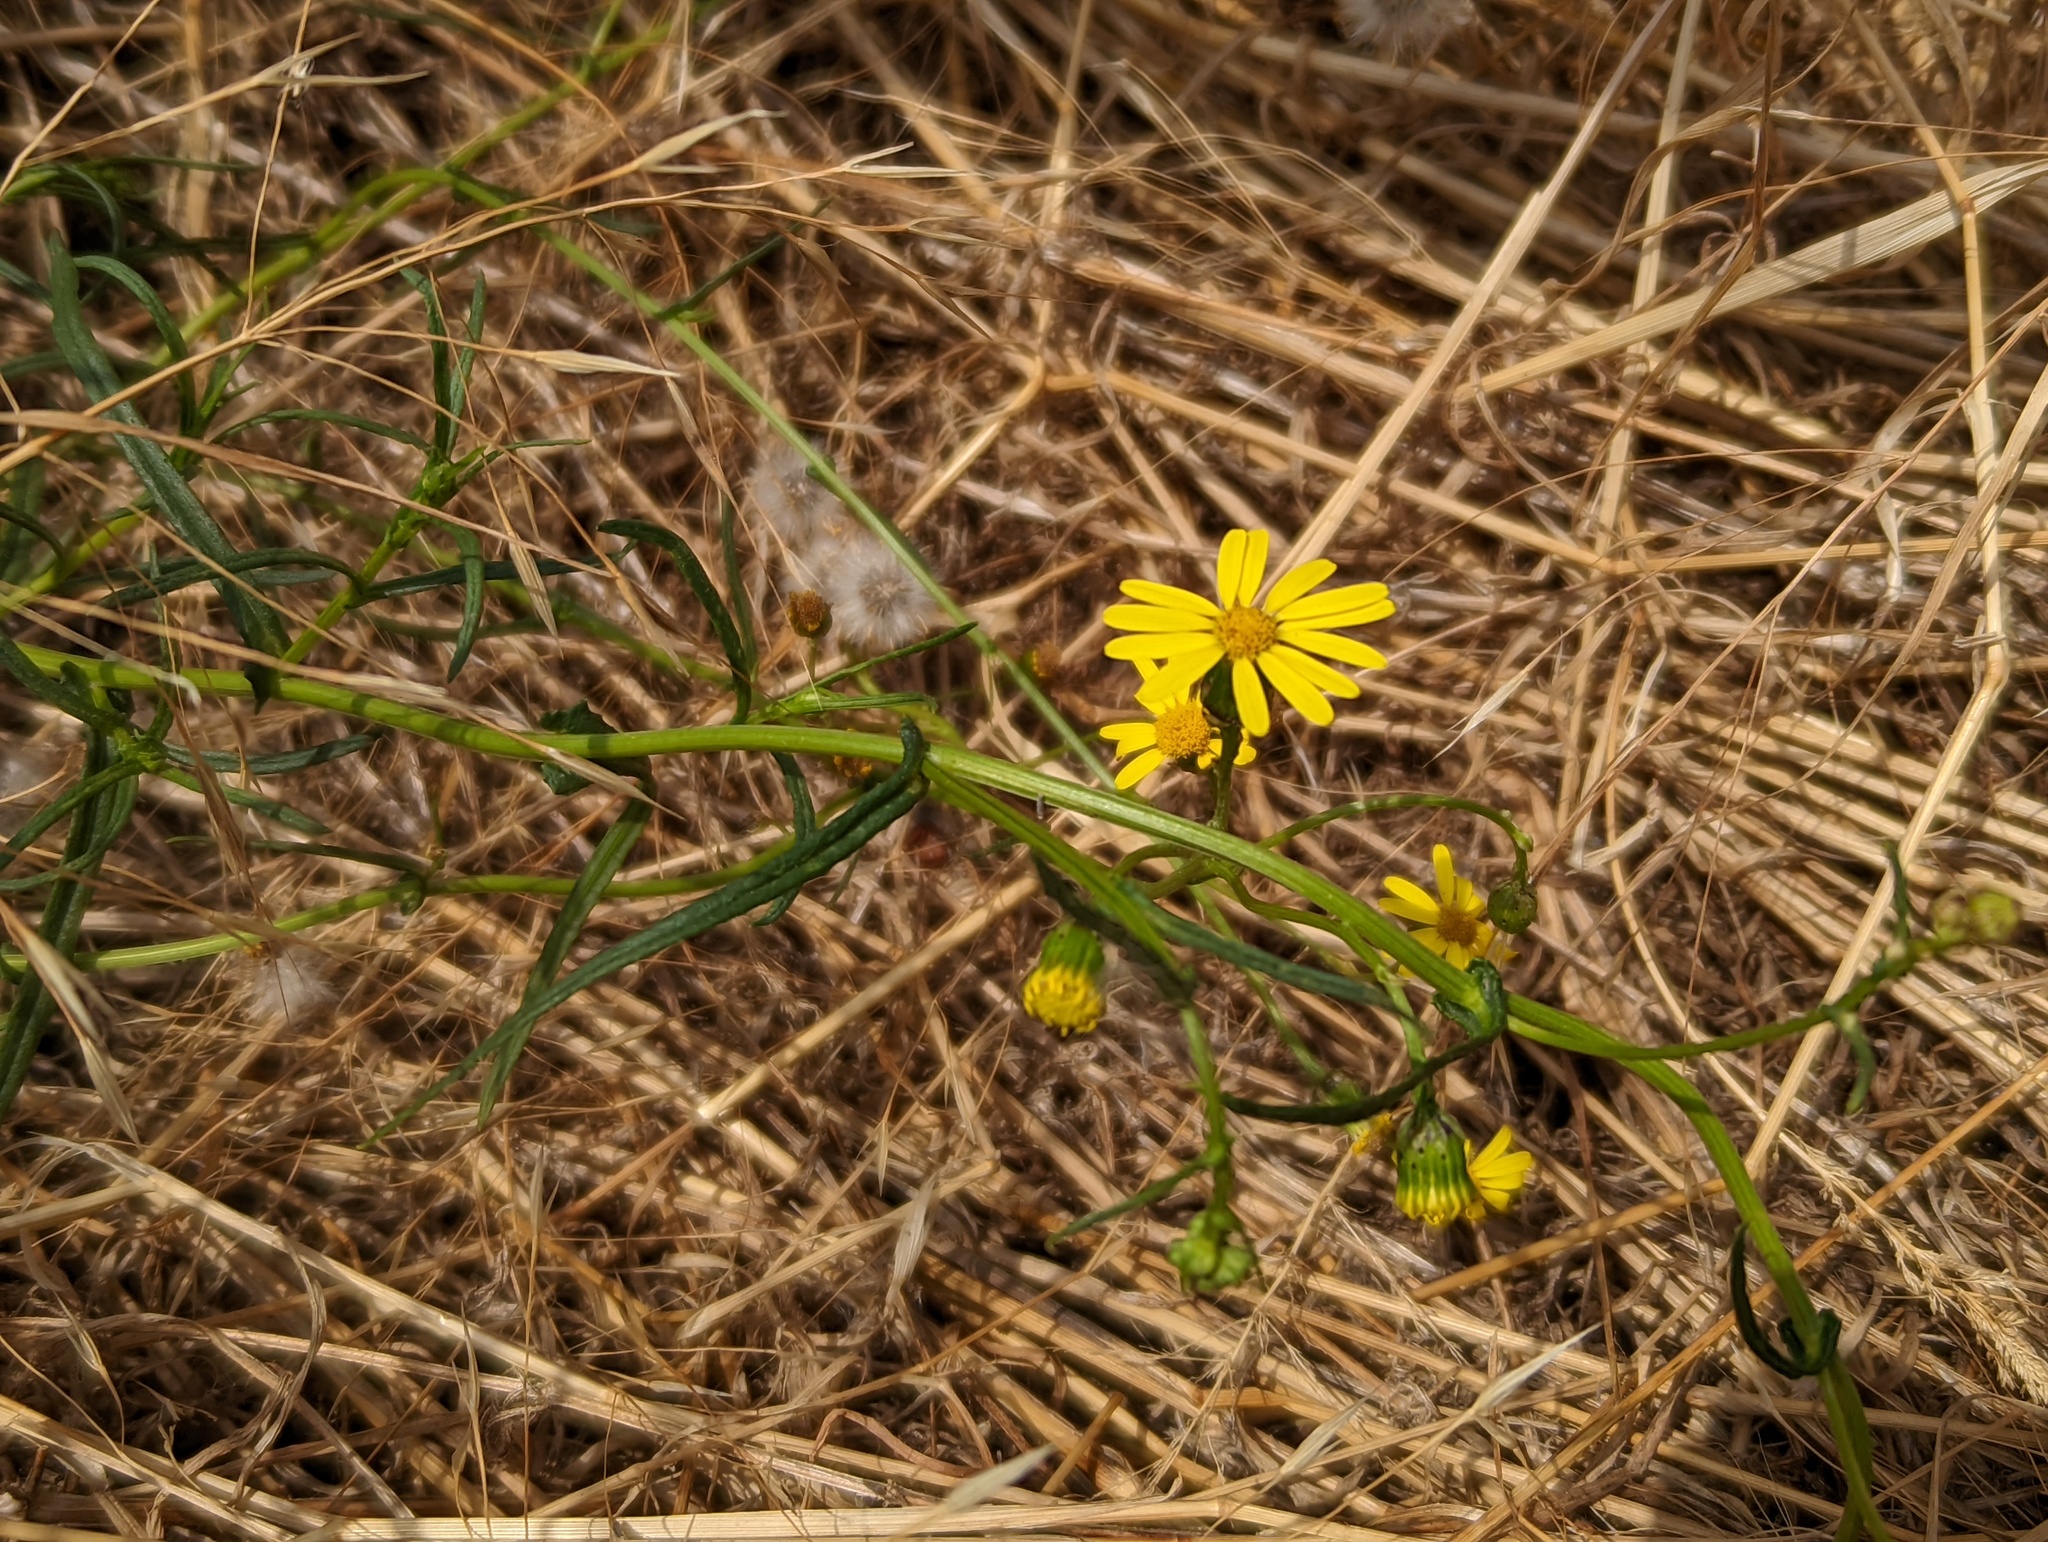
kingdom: Plantae
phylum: Tracheophyta
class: Magnoliopsida
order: Asterales
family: Asteraceae
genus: Senecio
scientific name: Senecio inaequidens
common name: Narrow-leaved ragwort
